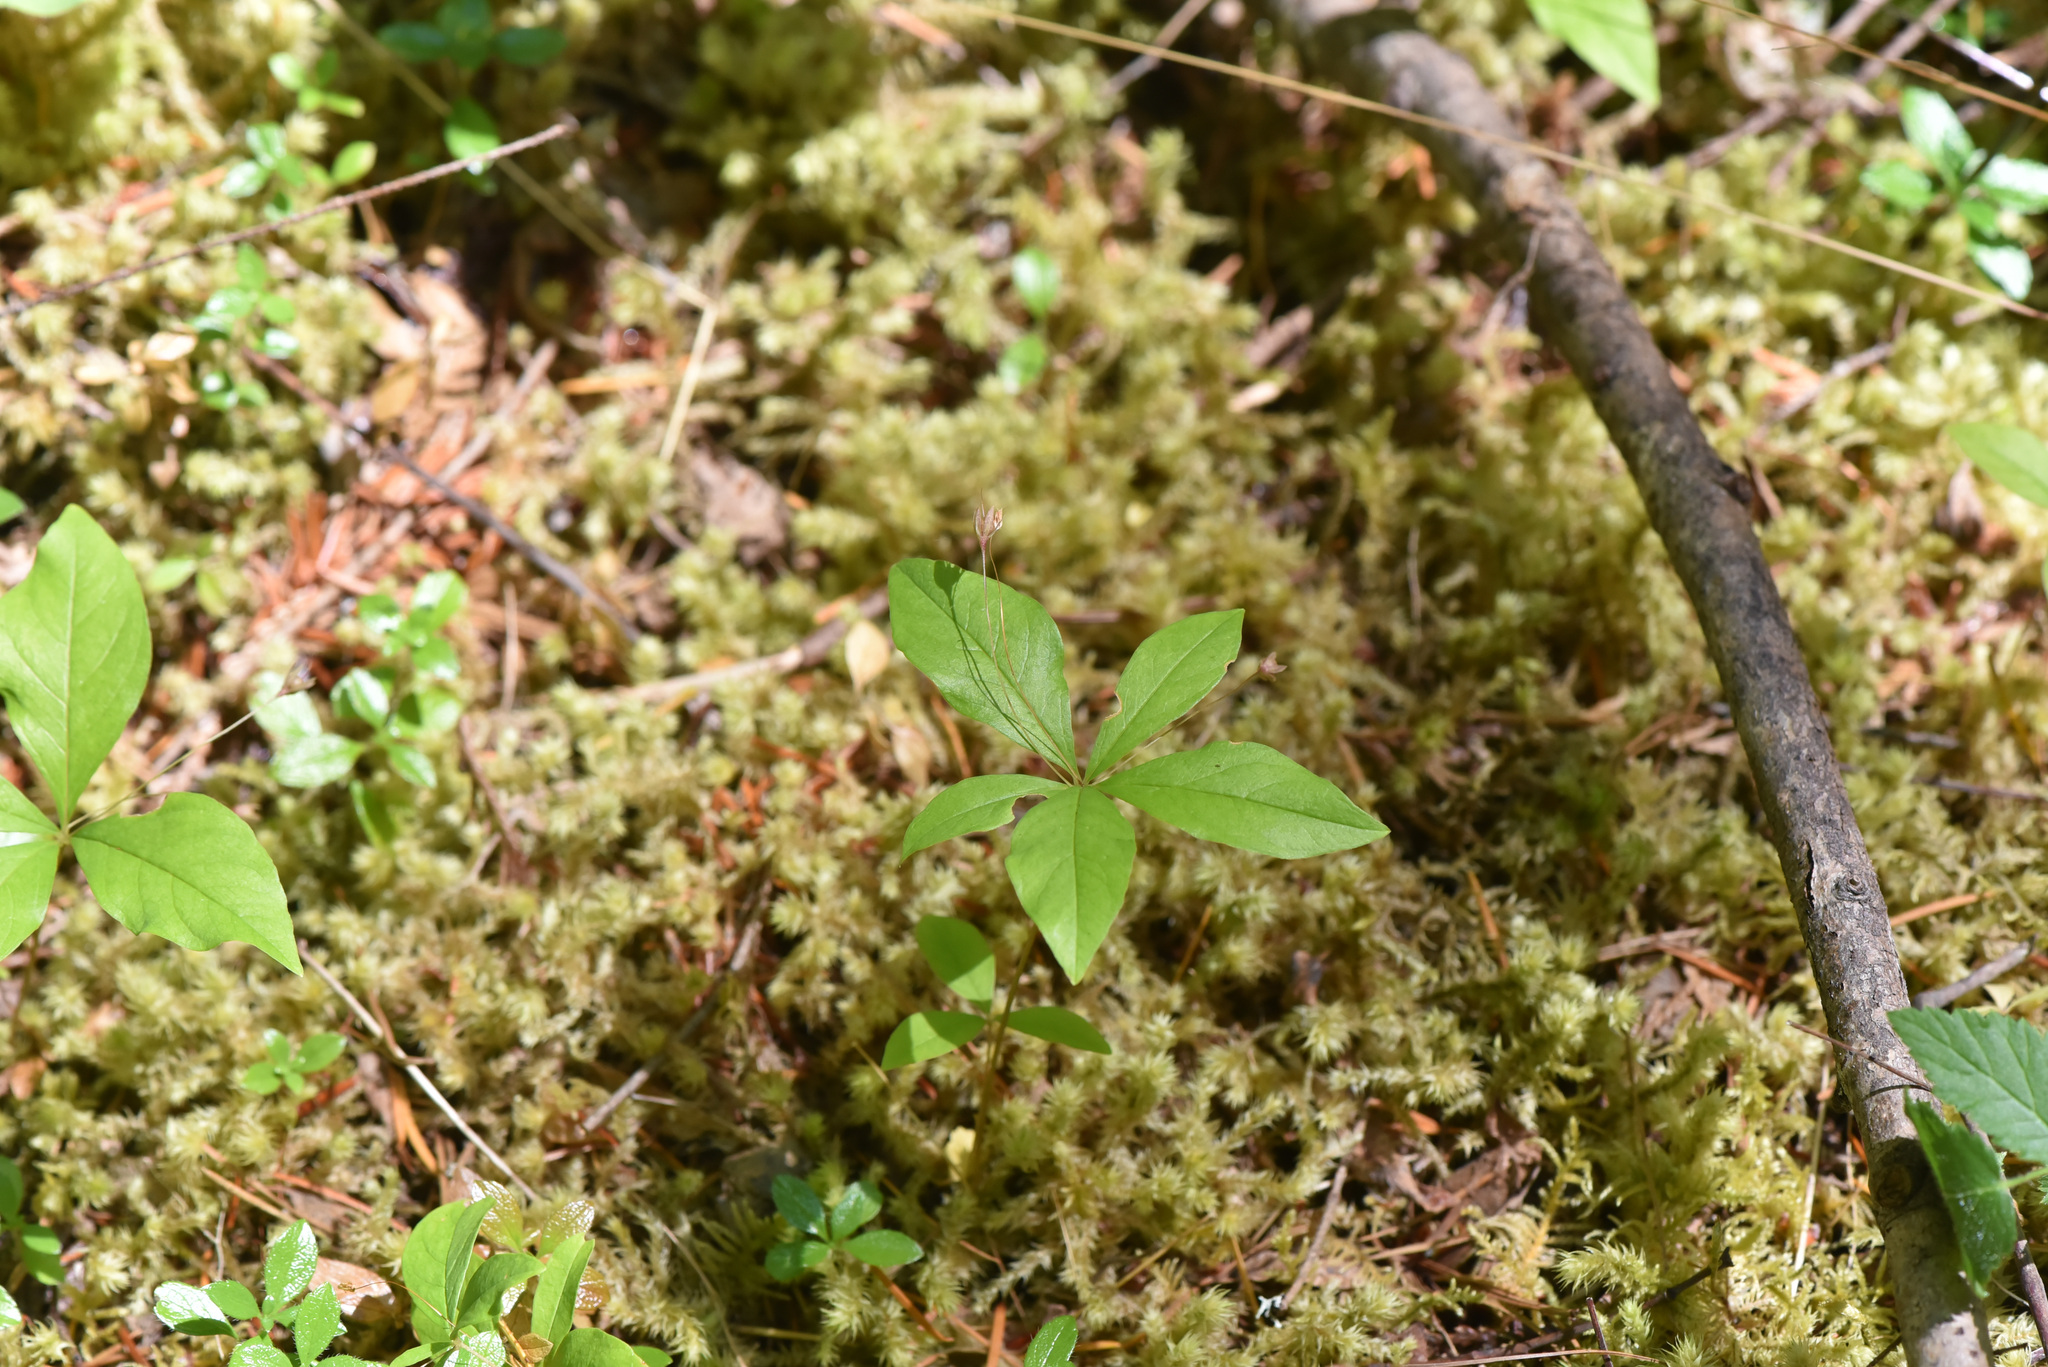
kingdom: Plantae
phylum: Tracheophyta
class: Magnoliopsida
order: Ericales
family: Primulaceae
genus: Lysimachia
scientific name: Lysimachia latifolia
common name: Pacific starflower
